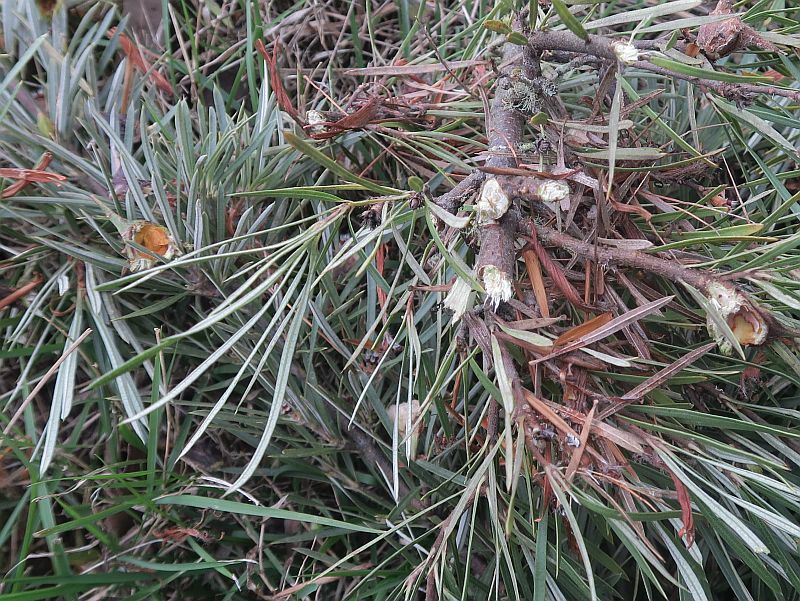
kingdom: Animalia
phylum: Chordata
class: Aves
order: Psittaciformes
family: Cacatuidae
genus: Zanda
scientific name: Zanda funerea
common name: Yellow-tailed black-cockatoo
